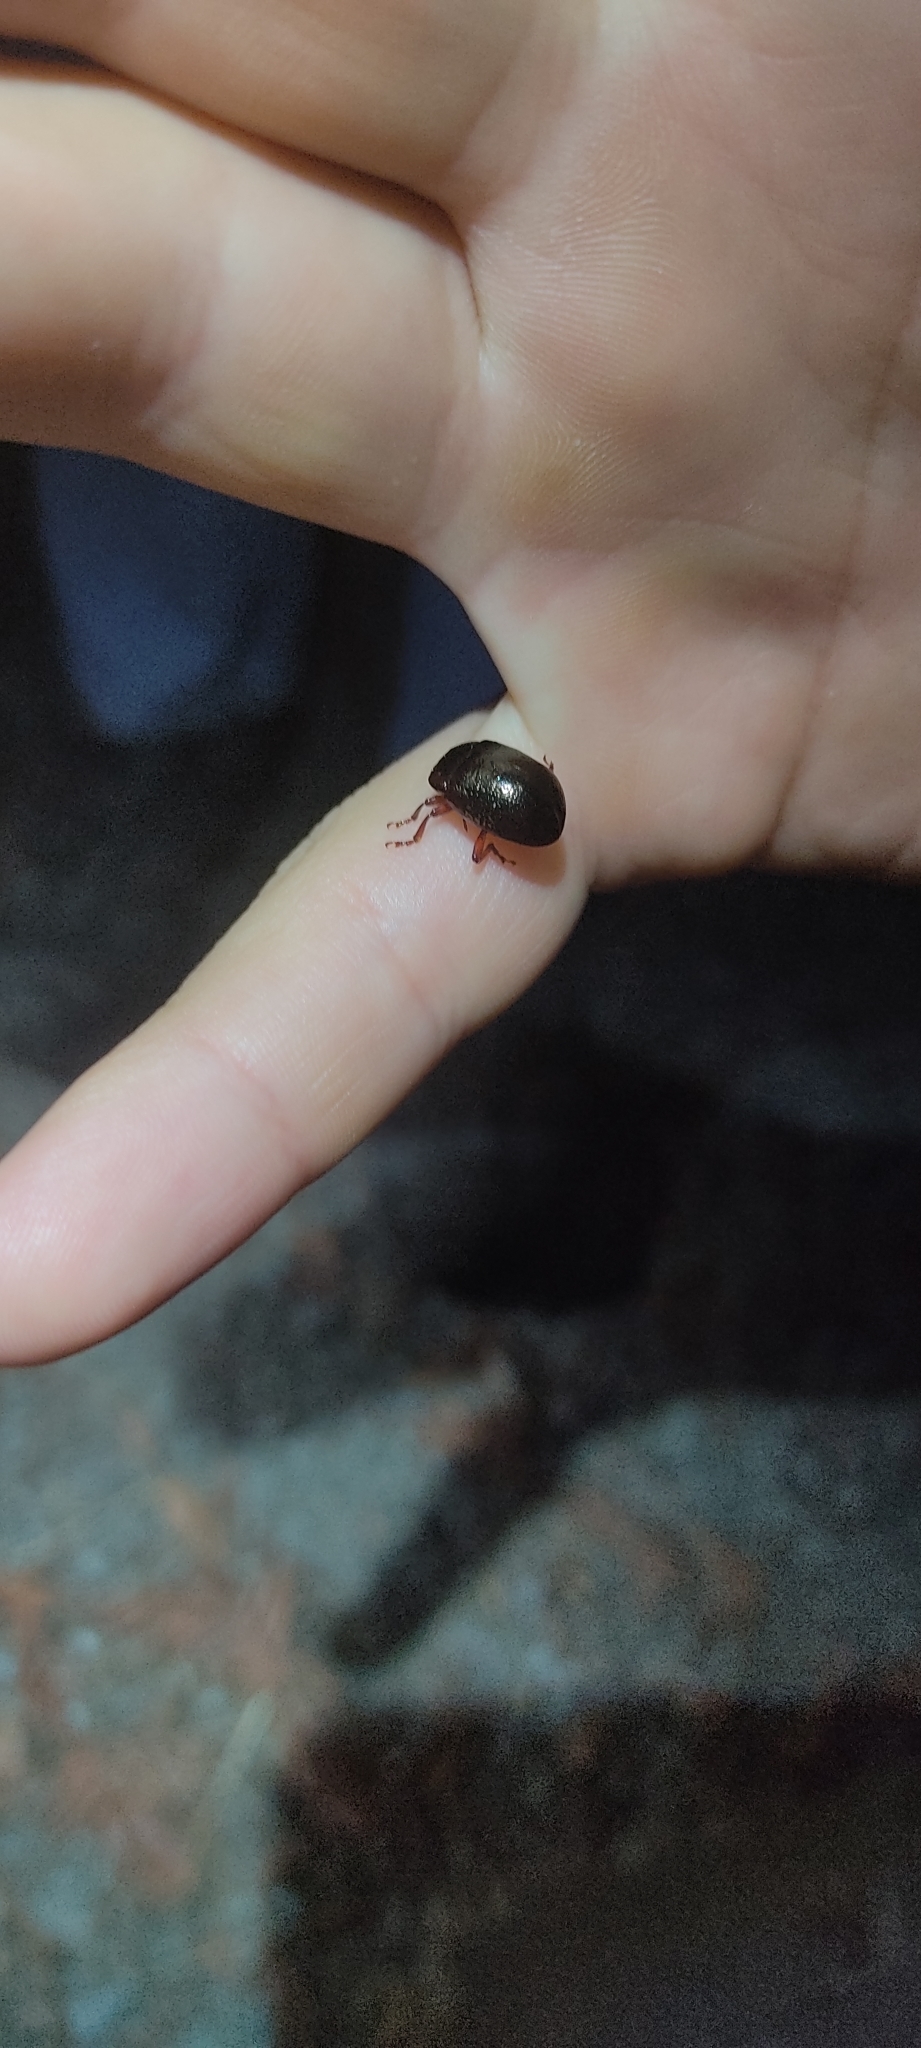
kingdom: Animalia
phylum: Arthropoda
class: Insecta
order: Coleoptera
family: Chrysomelidae
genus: Chrysolina
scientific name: Chrysolina bankii
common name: Leaf beetle
